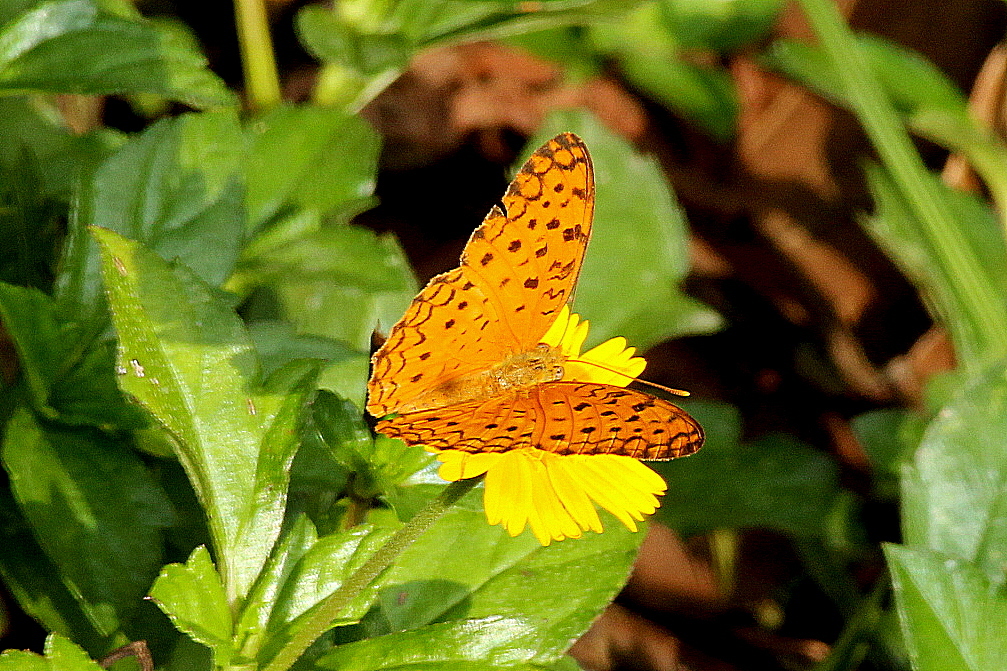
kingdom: Animalia
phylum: Arthropoda
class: Insecta
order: Lepidoptera
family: Nymphalidae
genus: Phalanta
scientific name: Phalanta phalantha
